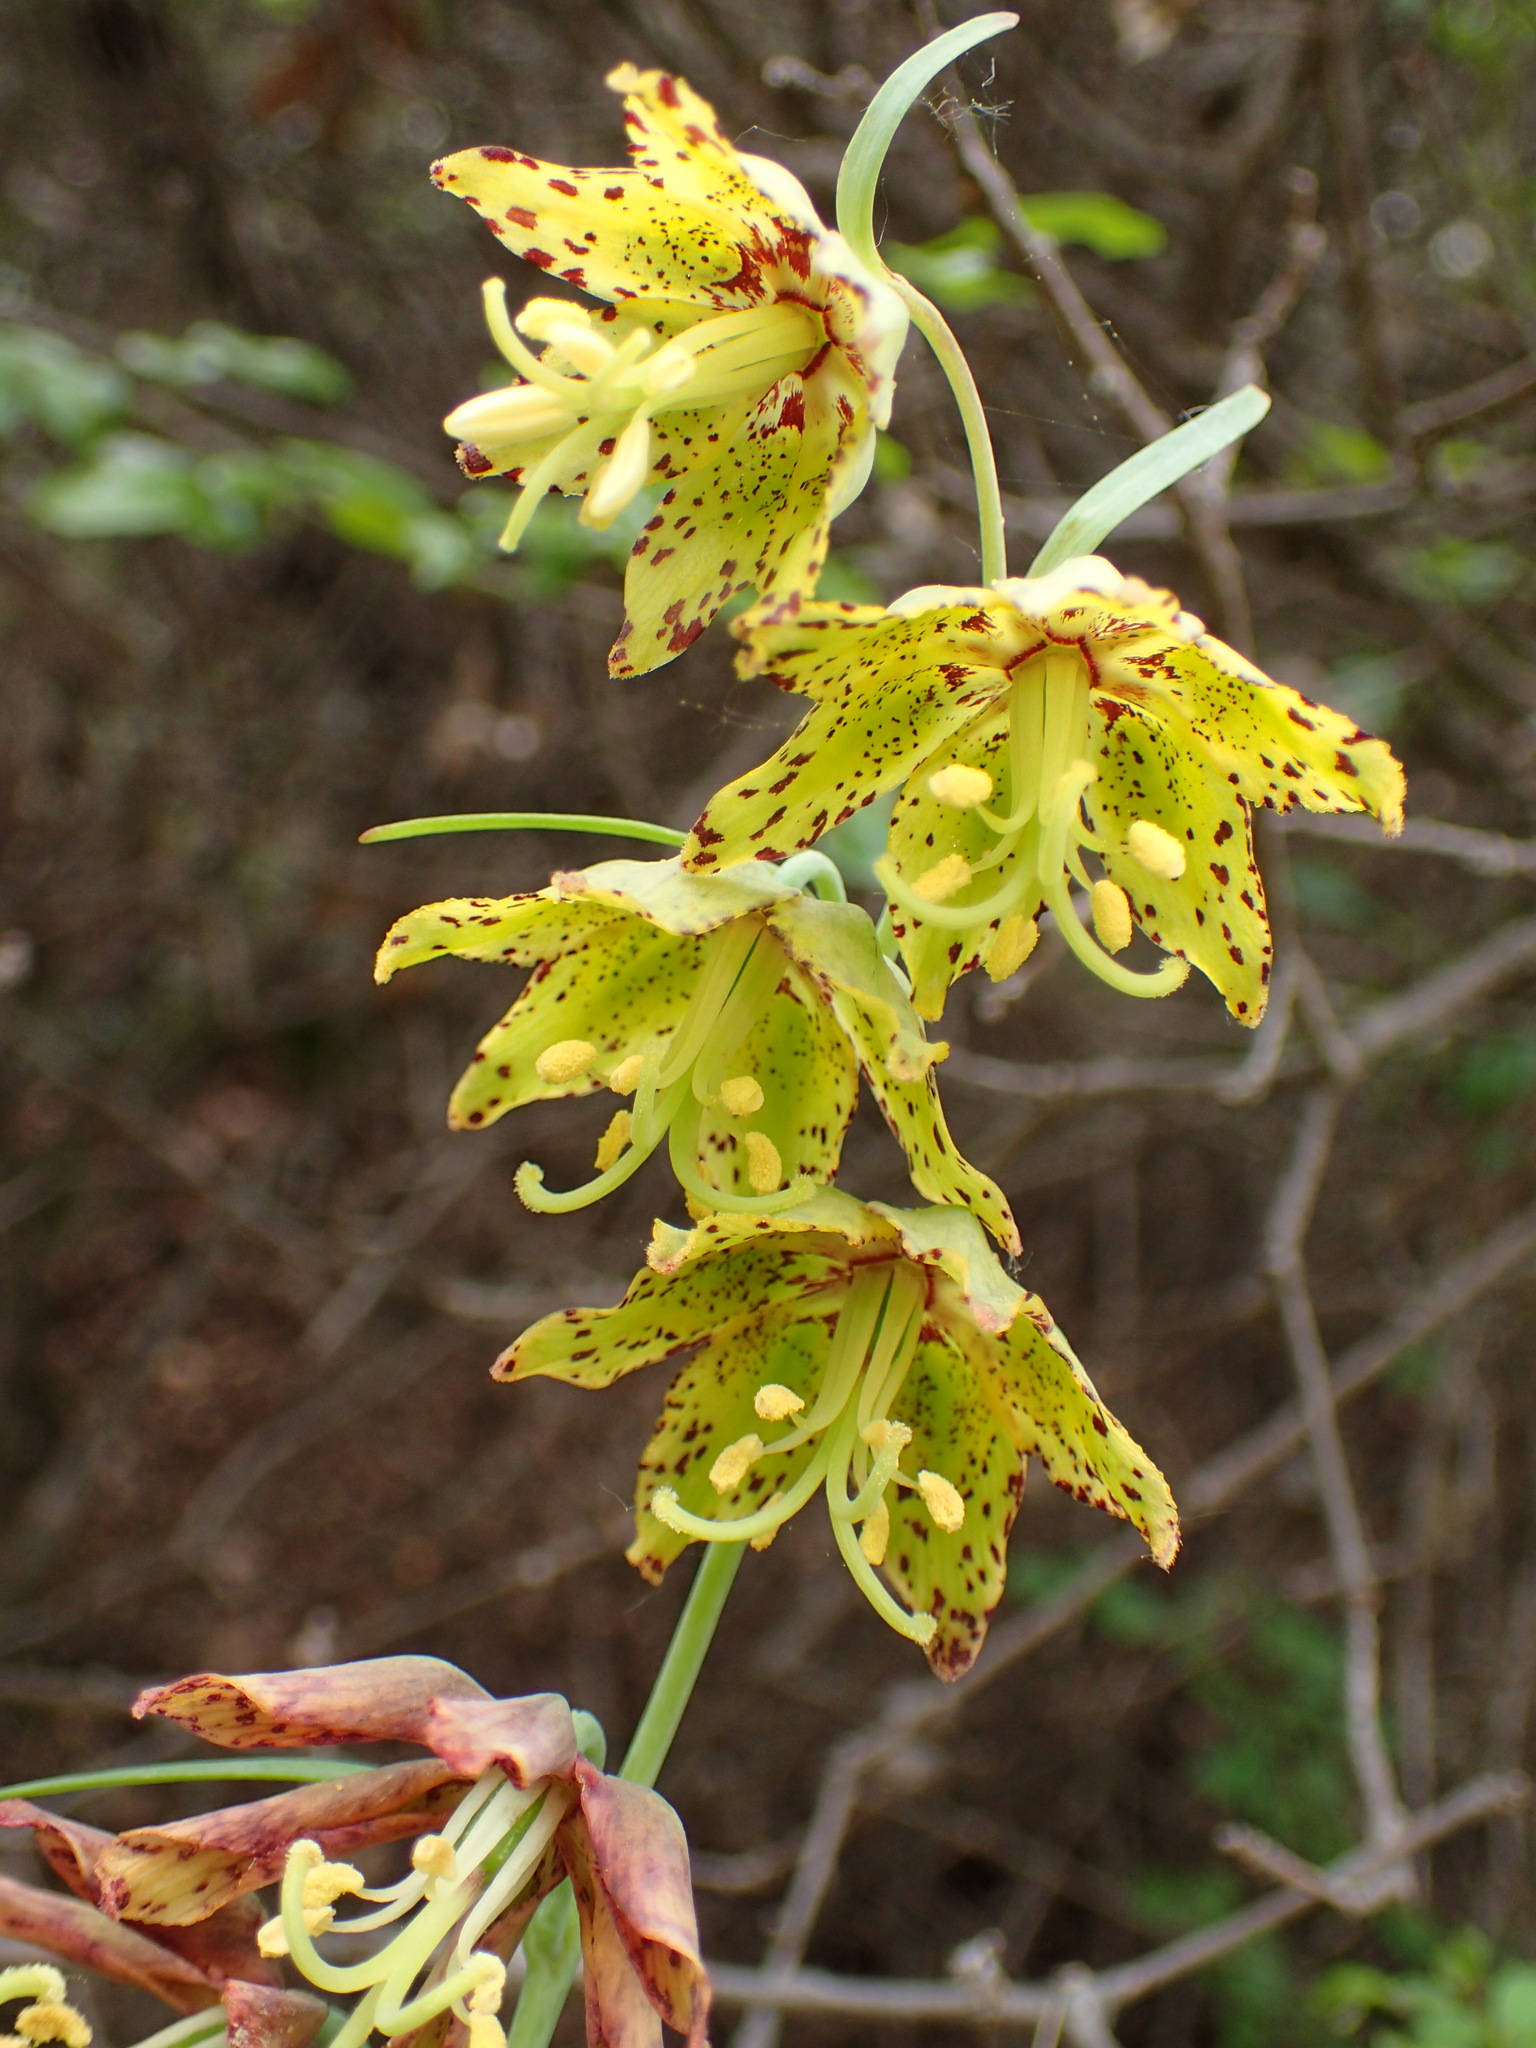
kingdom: Plantae
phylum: Tracheophyta
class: Liliopsida
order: Liliales
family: Liliaceae
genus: Fritillaria
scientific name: Fritillaria ojaiensis
